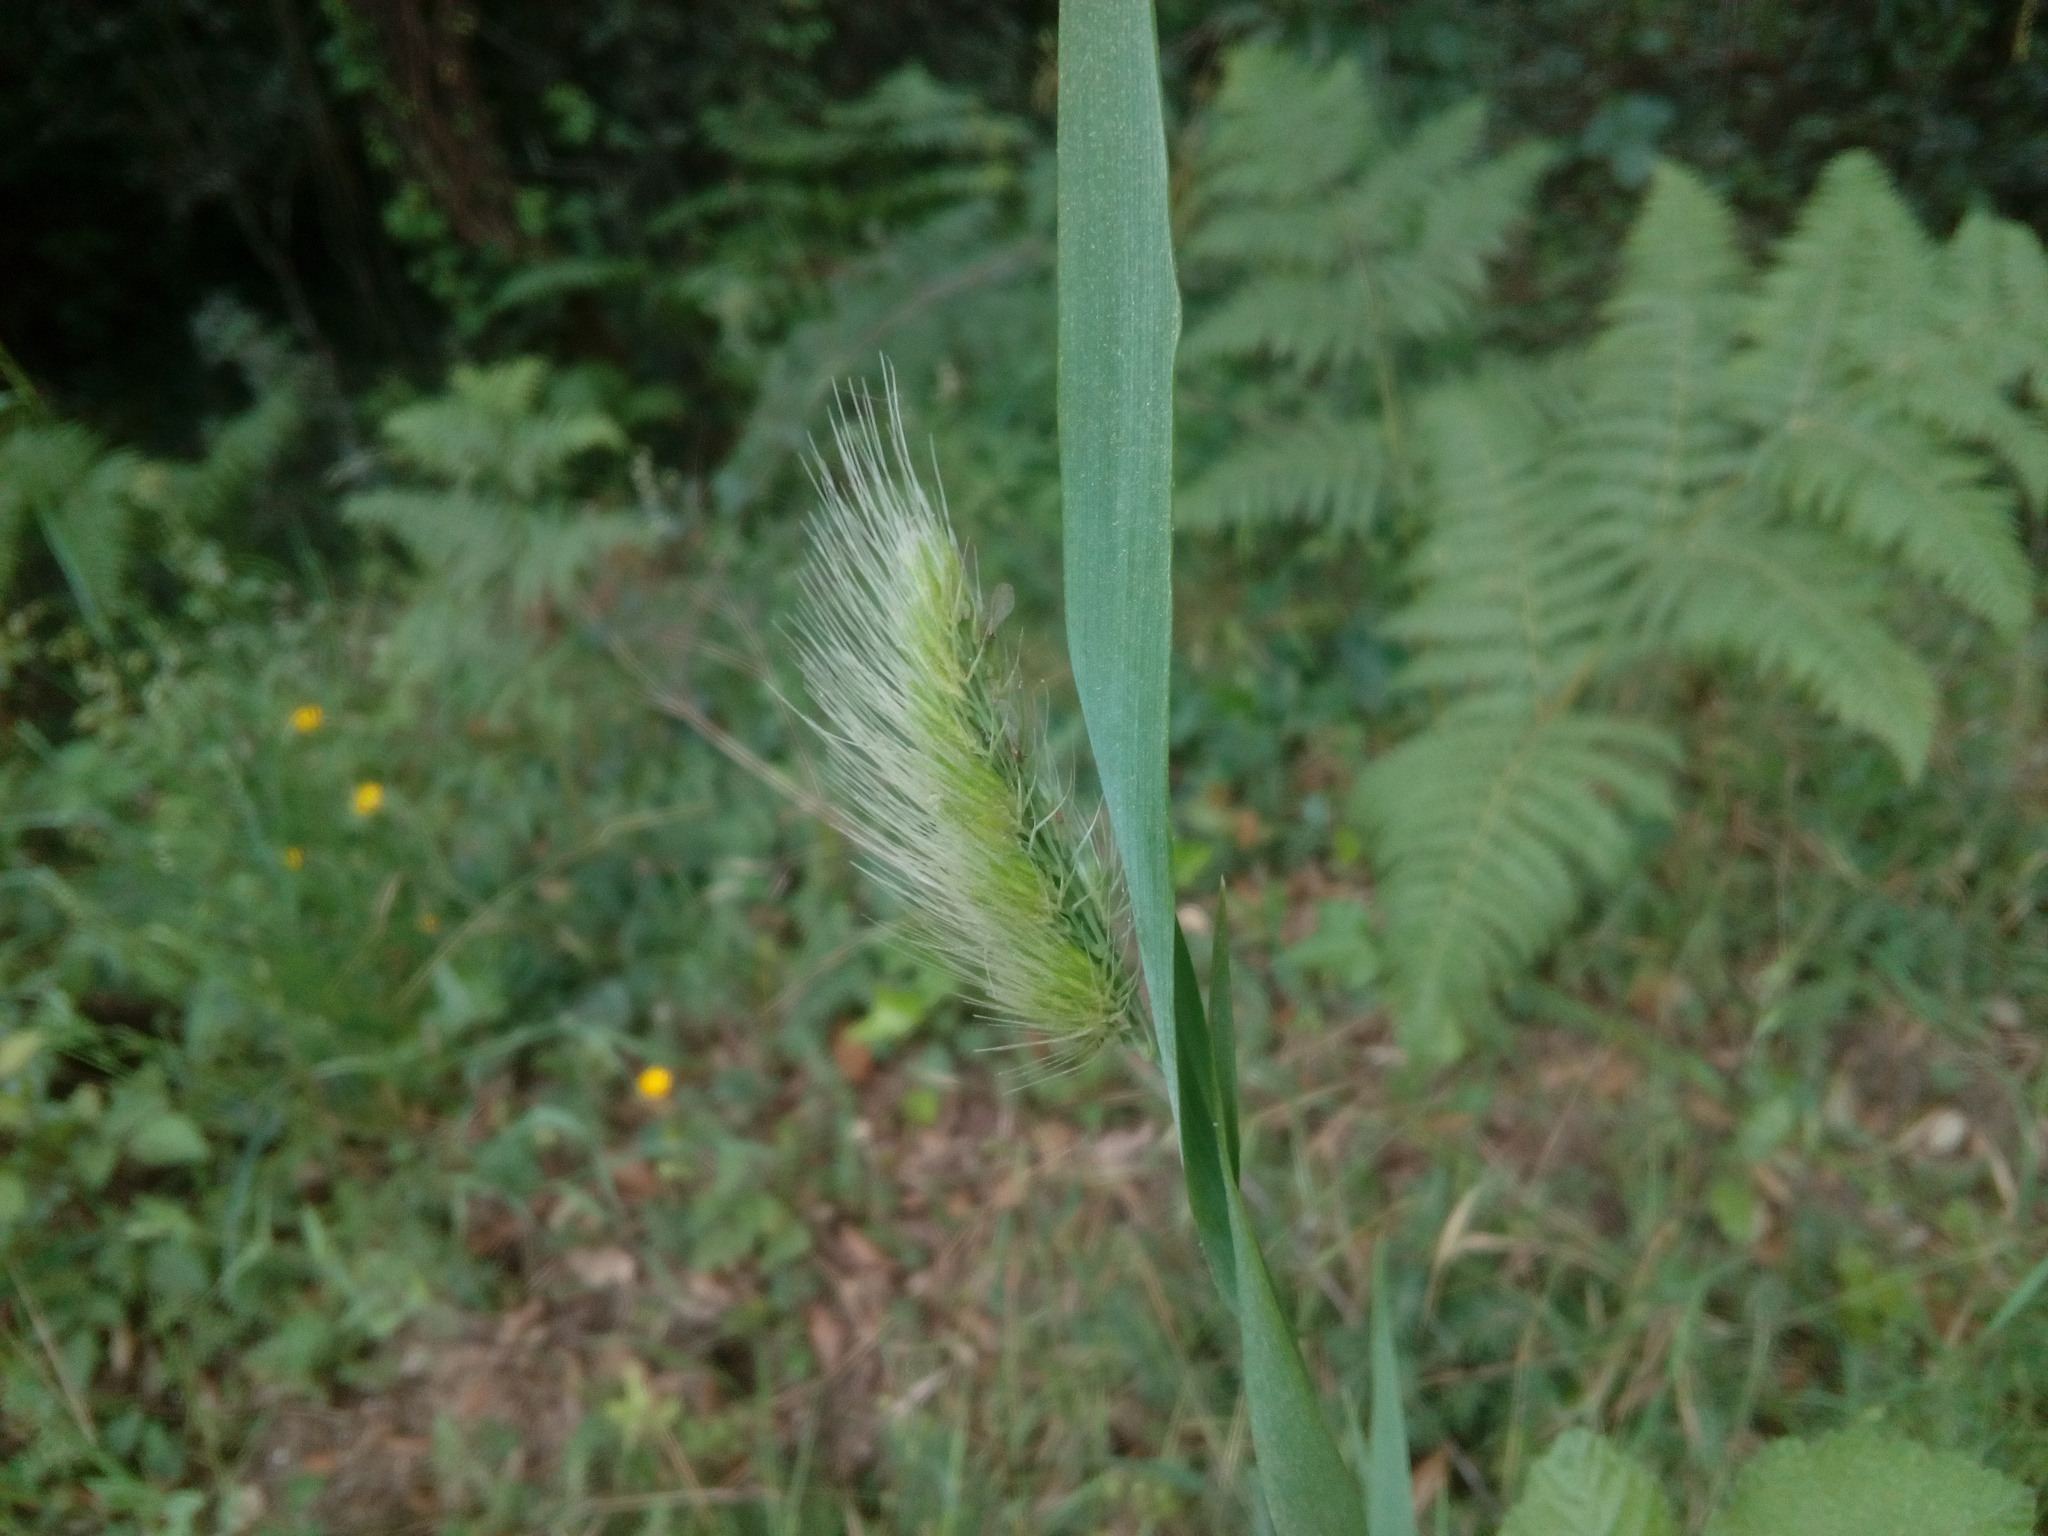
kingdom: Plantae
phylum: Tracheophyta
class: Liliopsida
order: Poales
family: Poaceae
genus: Cynosurus
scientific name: Cynosurus echinatus
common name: Rough dog's-tail
